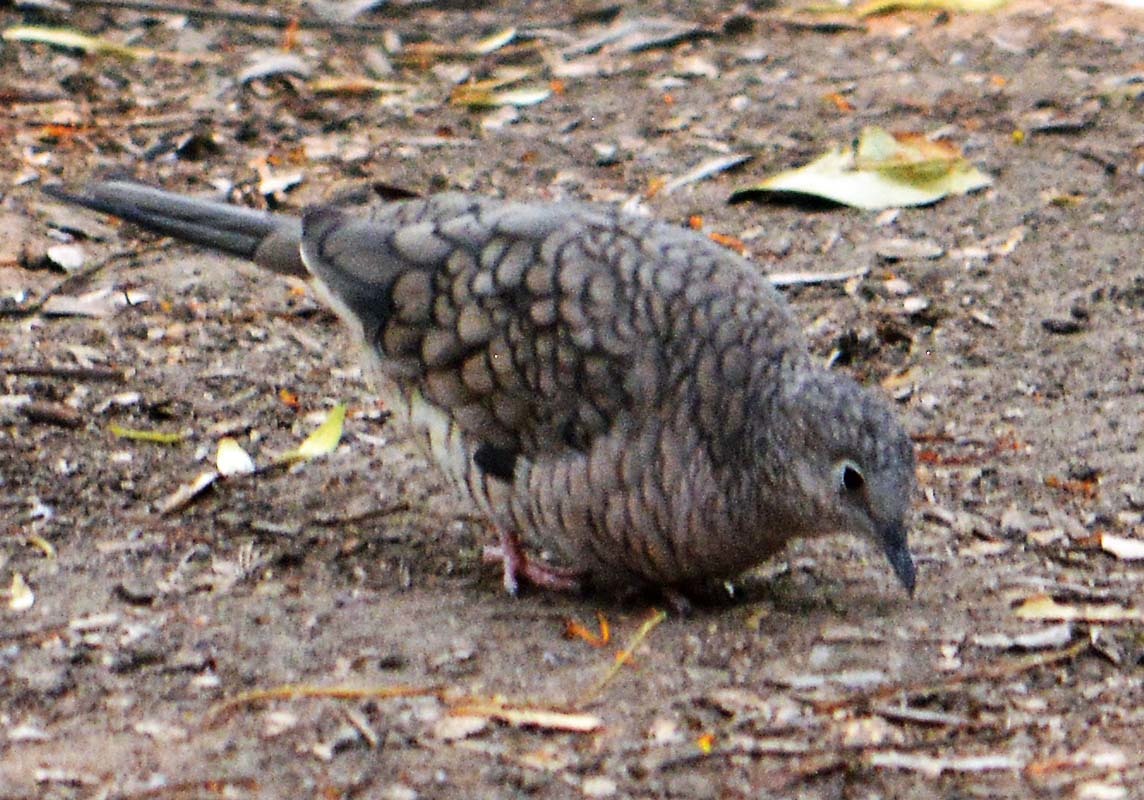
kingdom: Animalia
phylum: Chordata
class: Aves
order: Columbiformes
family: Columbidae
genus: Columbina
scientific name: Columbina inca
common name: Inca dove
